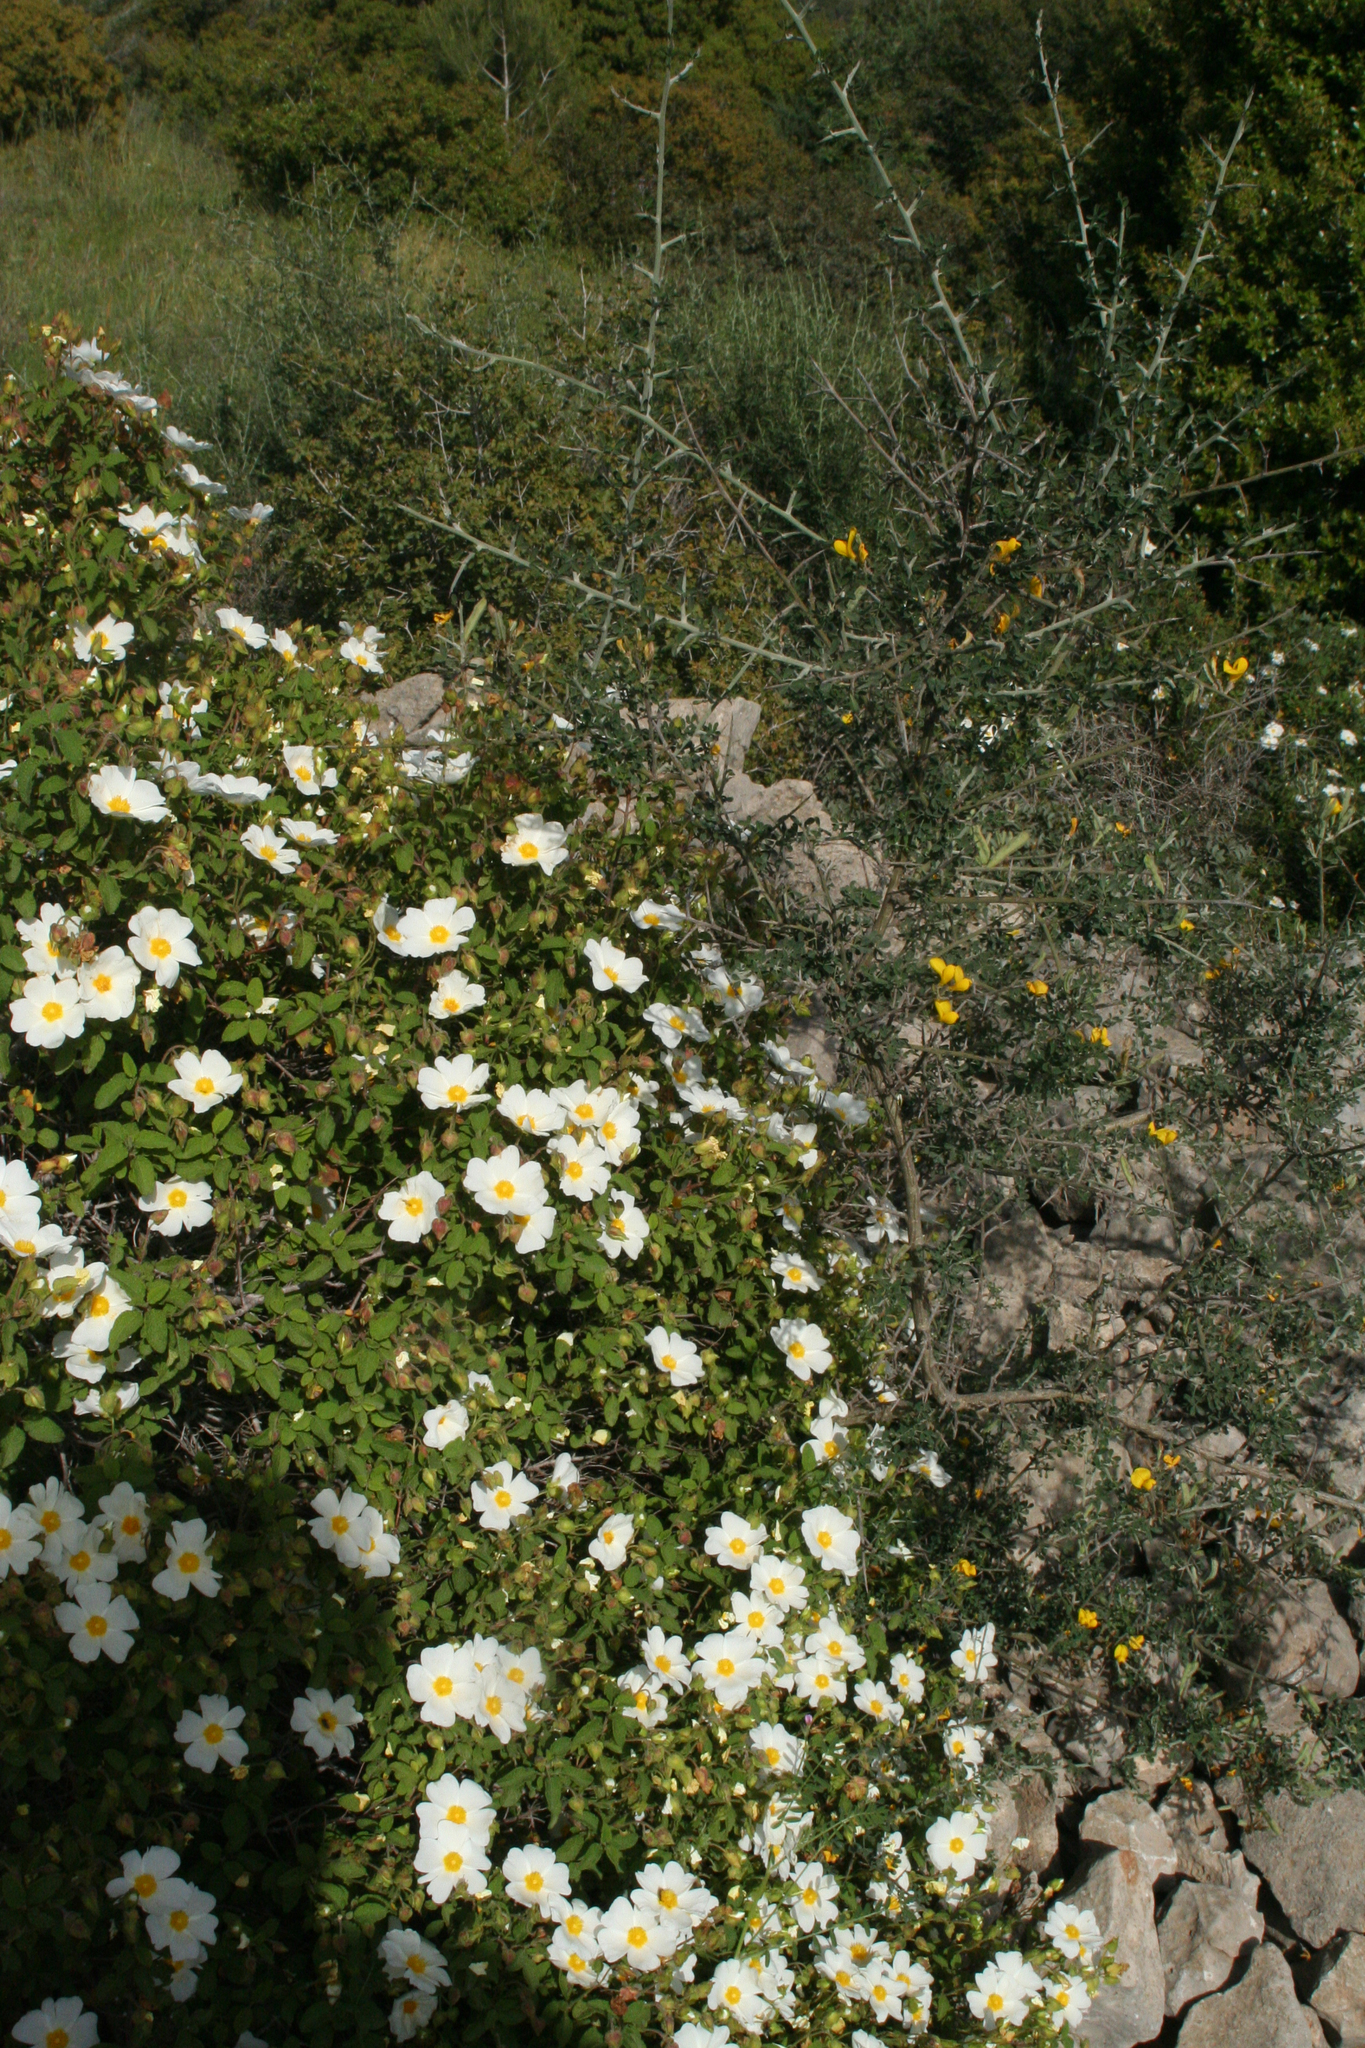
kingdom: Plantae
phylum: Tracheophyta
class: Magnoliopsida
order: Malvales
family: Cistaceae
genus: Cistus
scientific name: Cistus salviifolius
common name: Salvia cistus
